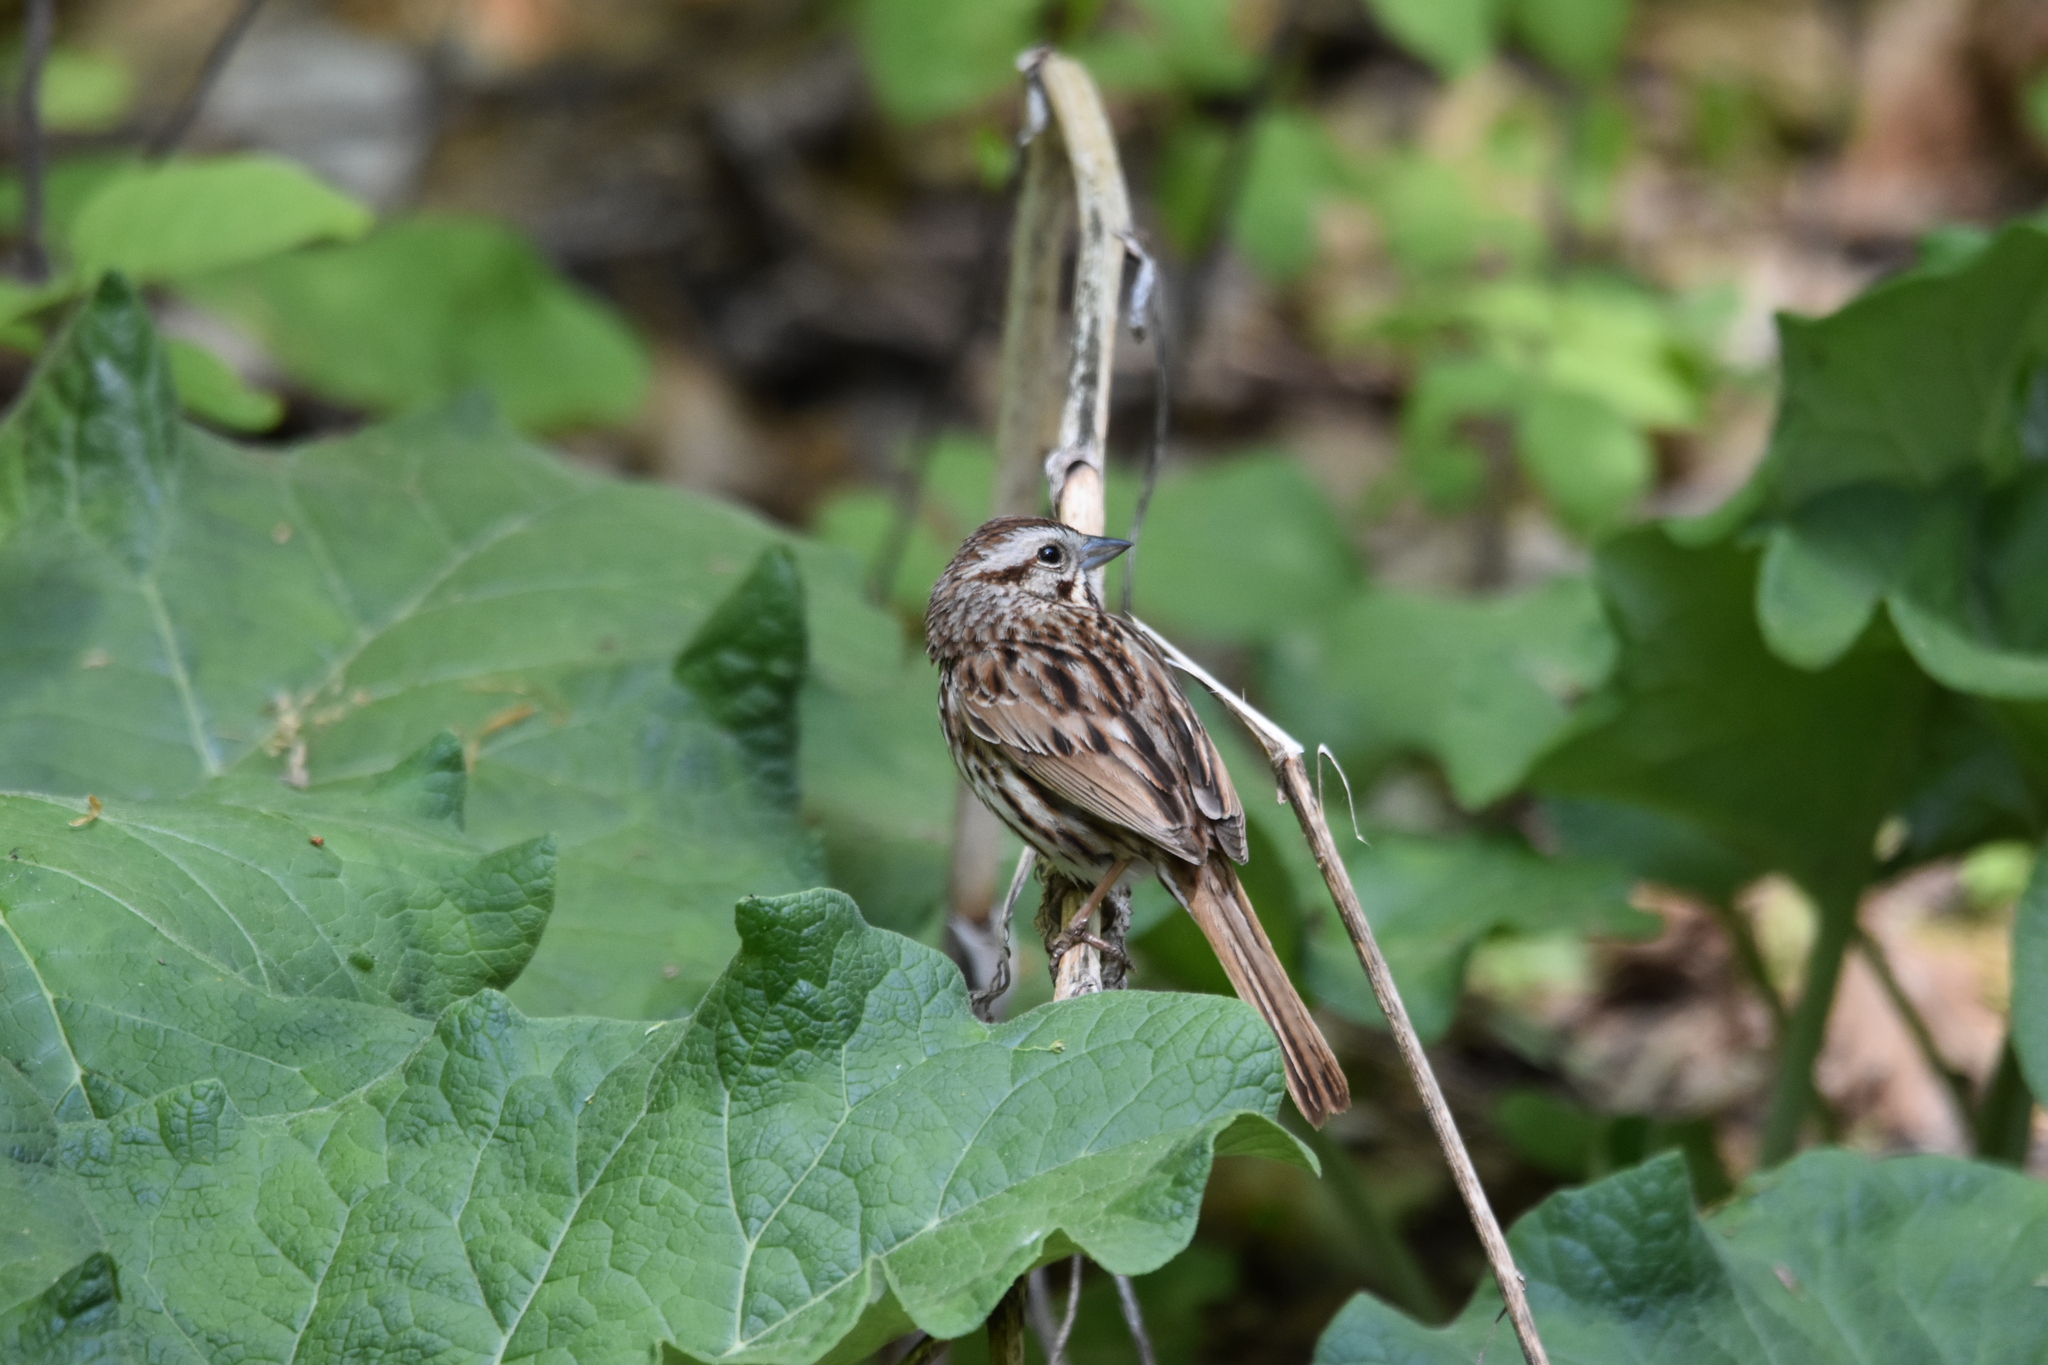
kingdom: Animalia
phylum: Chordata
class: Aves
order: Passeriformes
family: Passerellidae
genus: Melospiza
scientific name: Melospiza melodia
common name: Song sparrow
